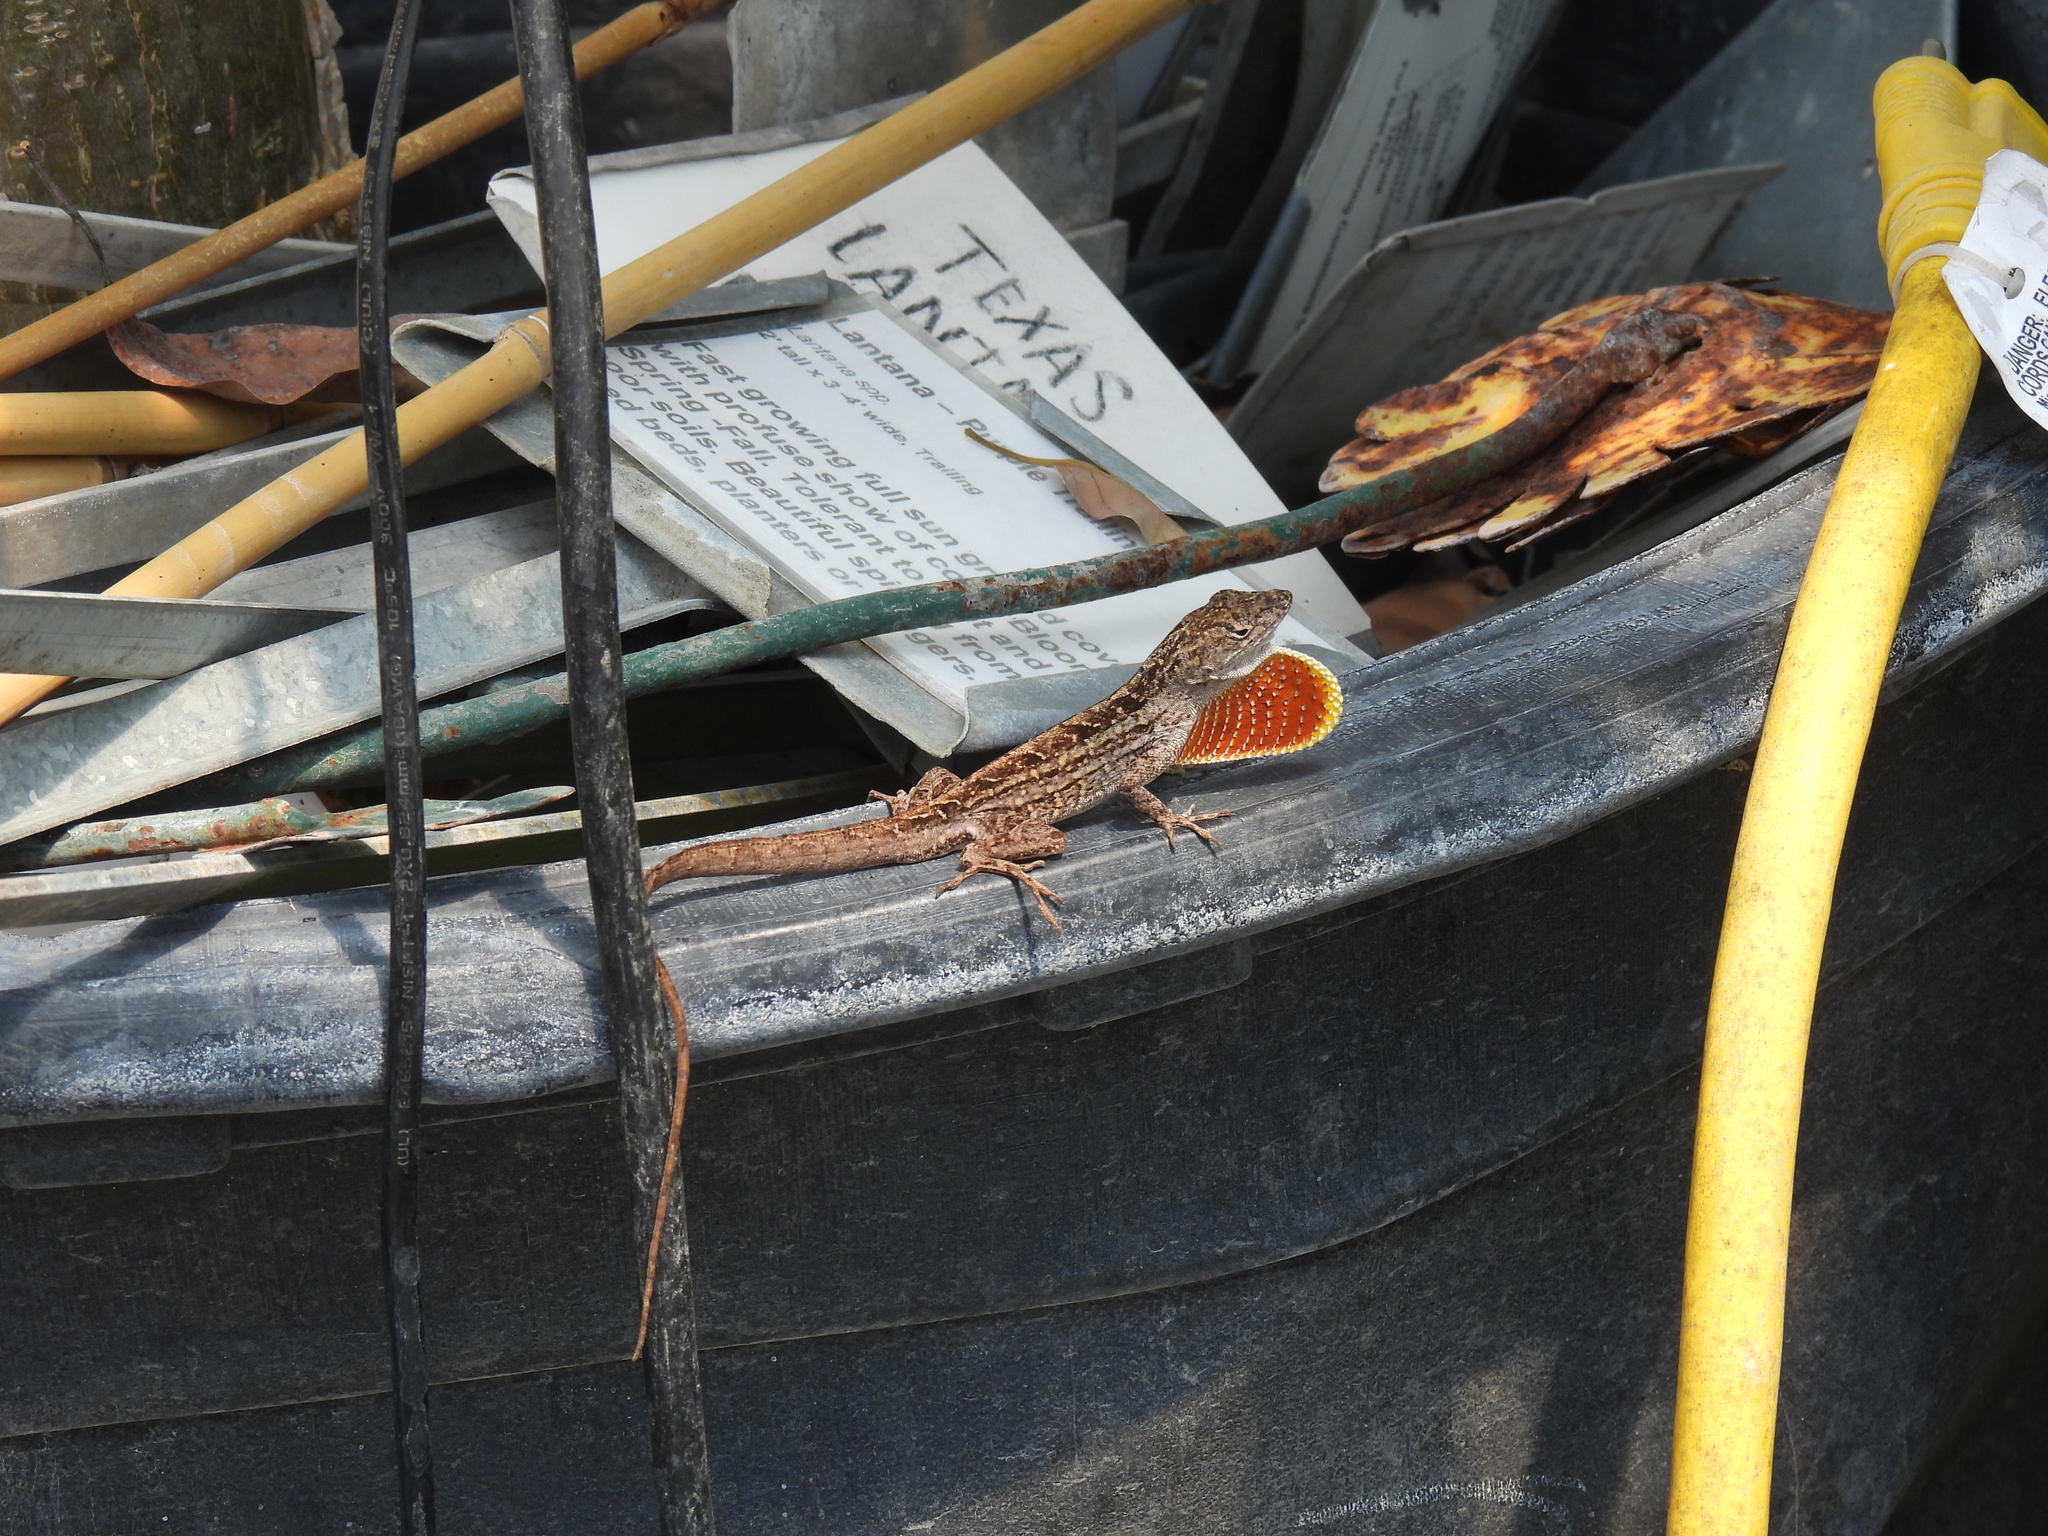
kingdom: Animalia
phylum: Chordata
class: Squamata
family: Dactyloidae
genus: Anolis
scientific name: Anolis sagrei
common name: Brown anole
